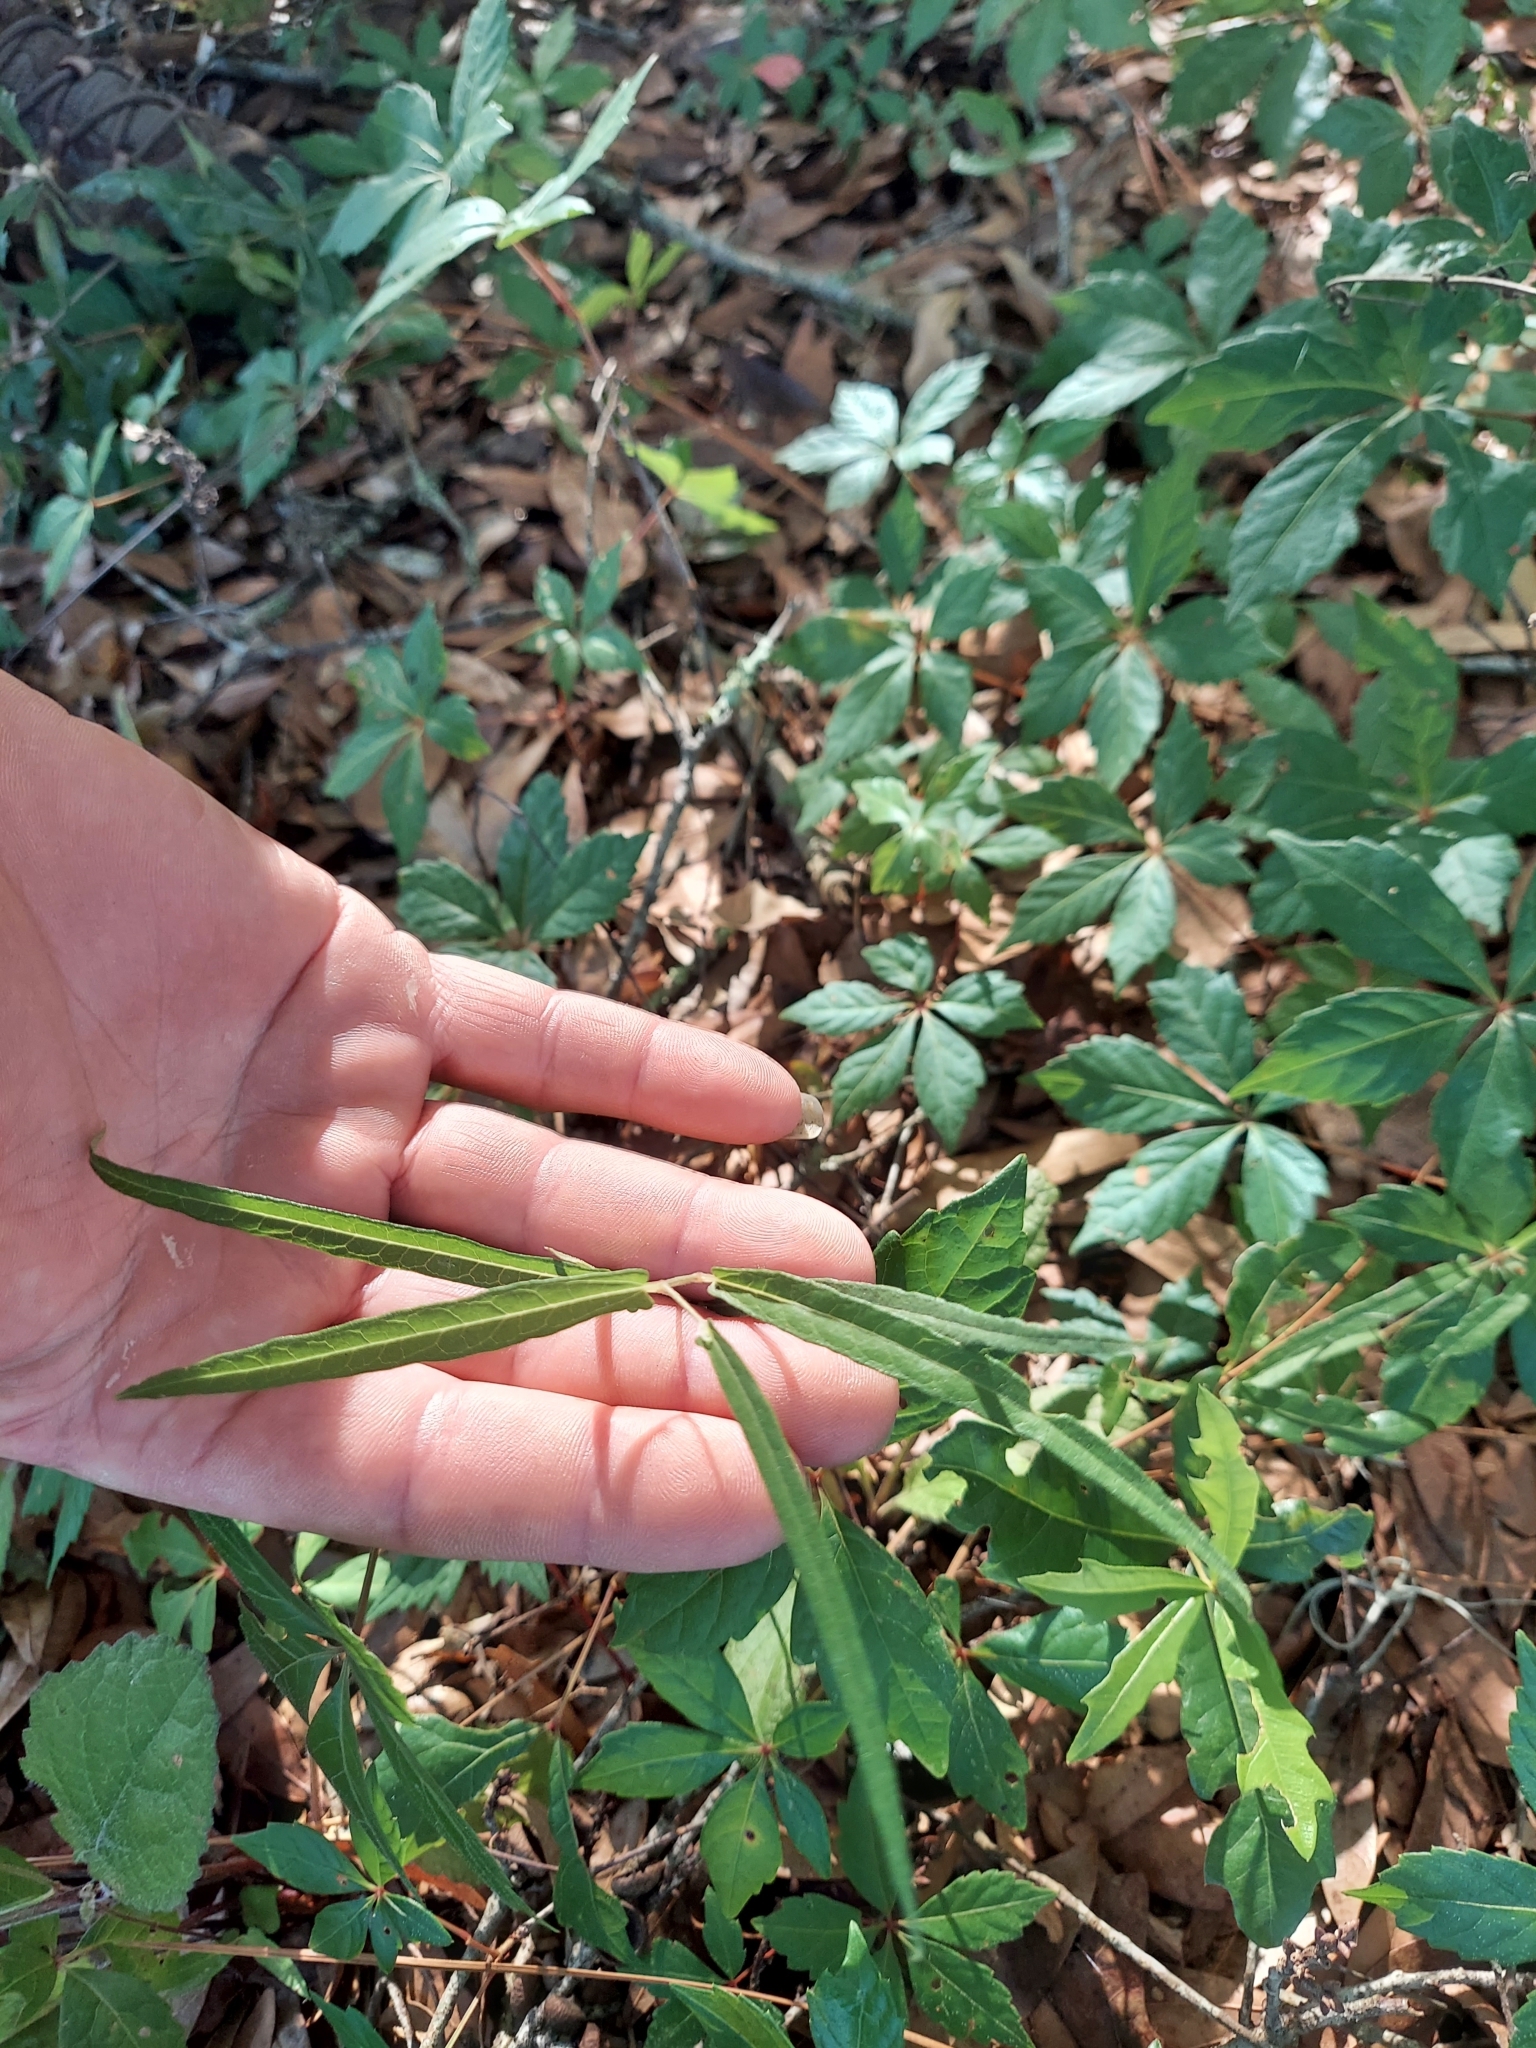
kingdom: Plantae
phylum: Tracheophyta
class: Magnoliopsida
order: Piperales
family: Aristolochiaceae
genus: Endodeca
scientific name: Endodeca serpentaria
